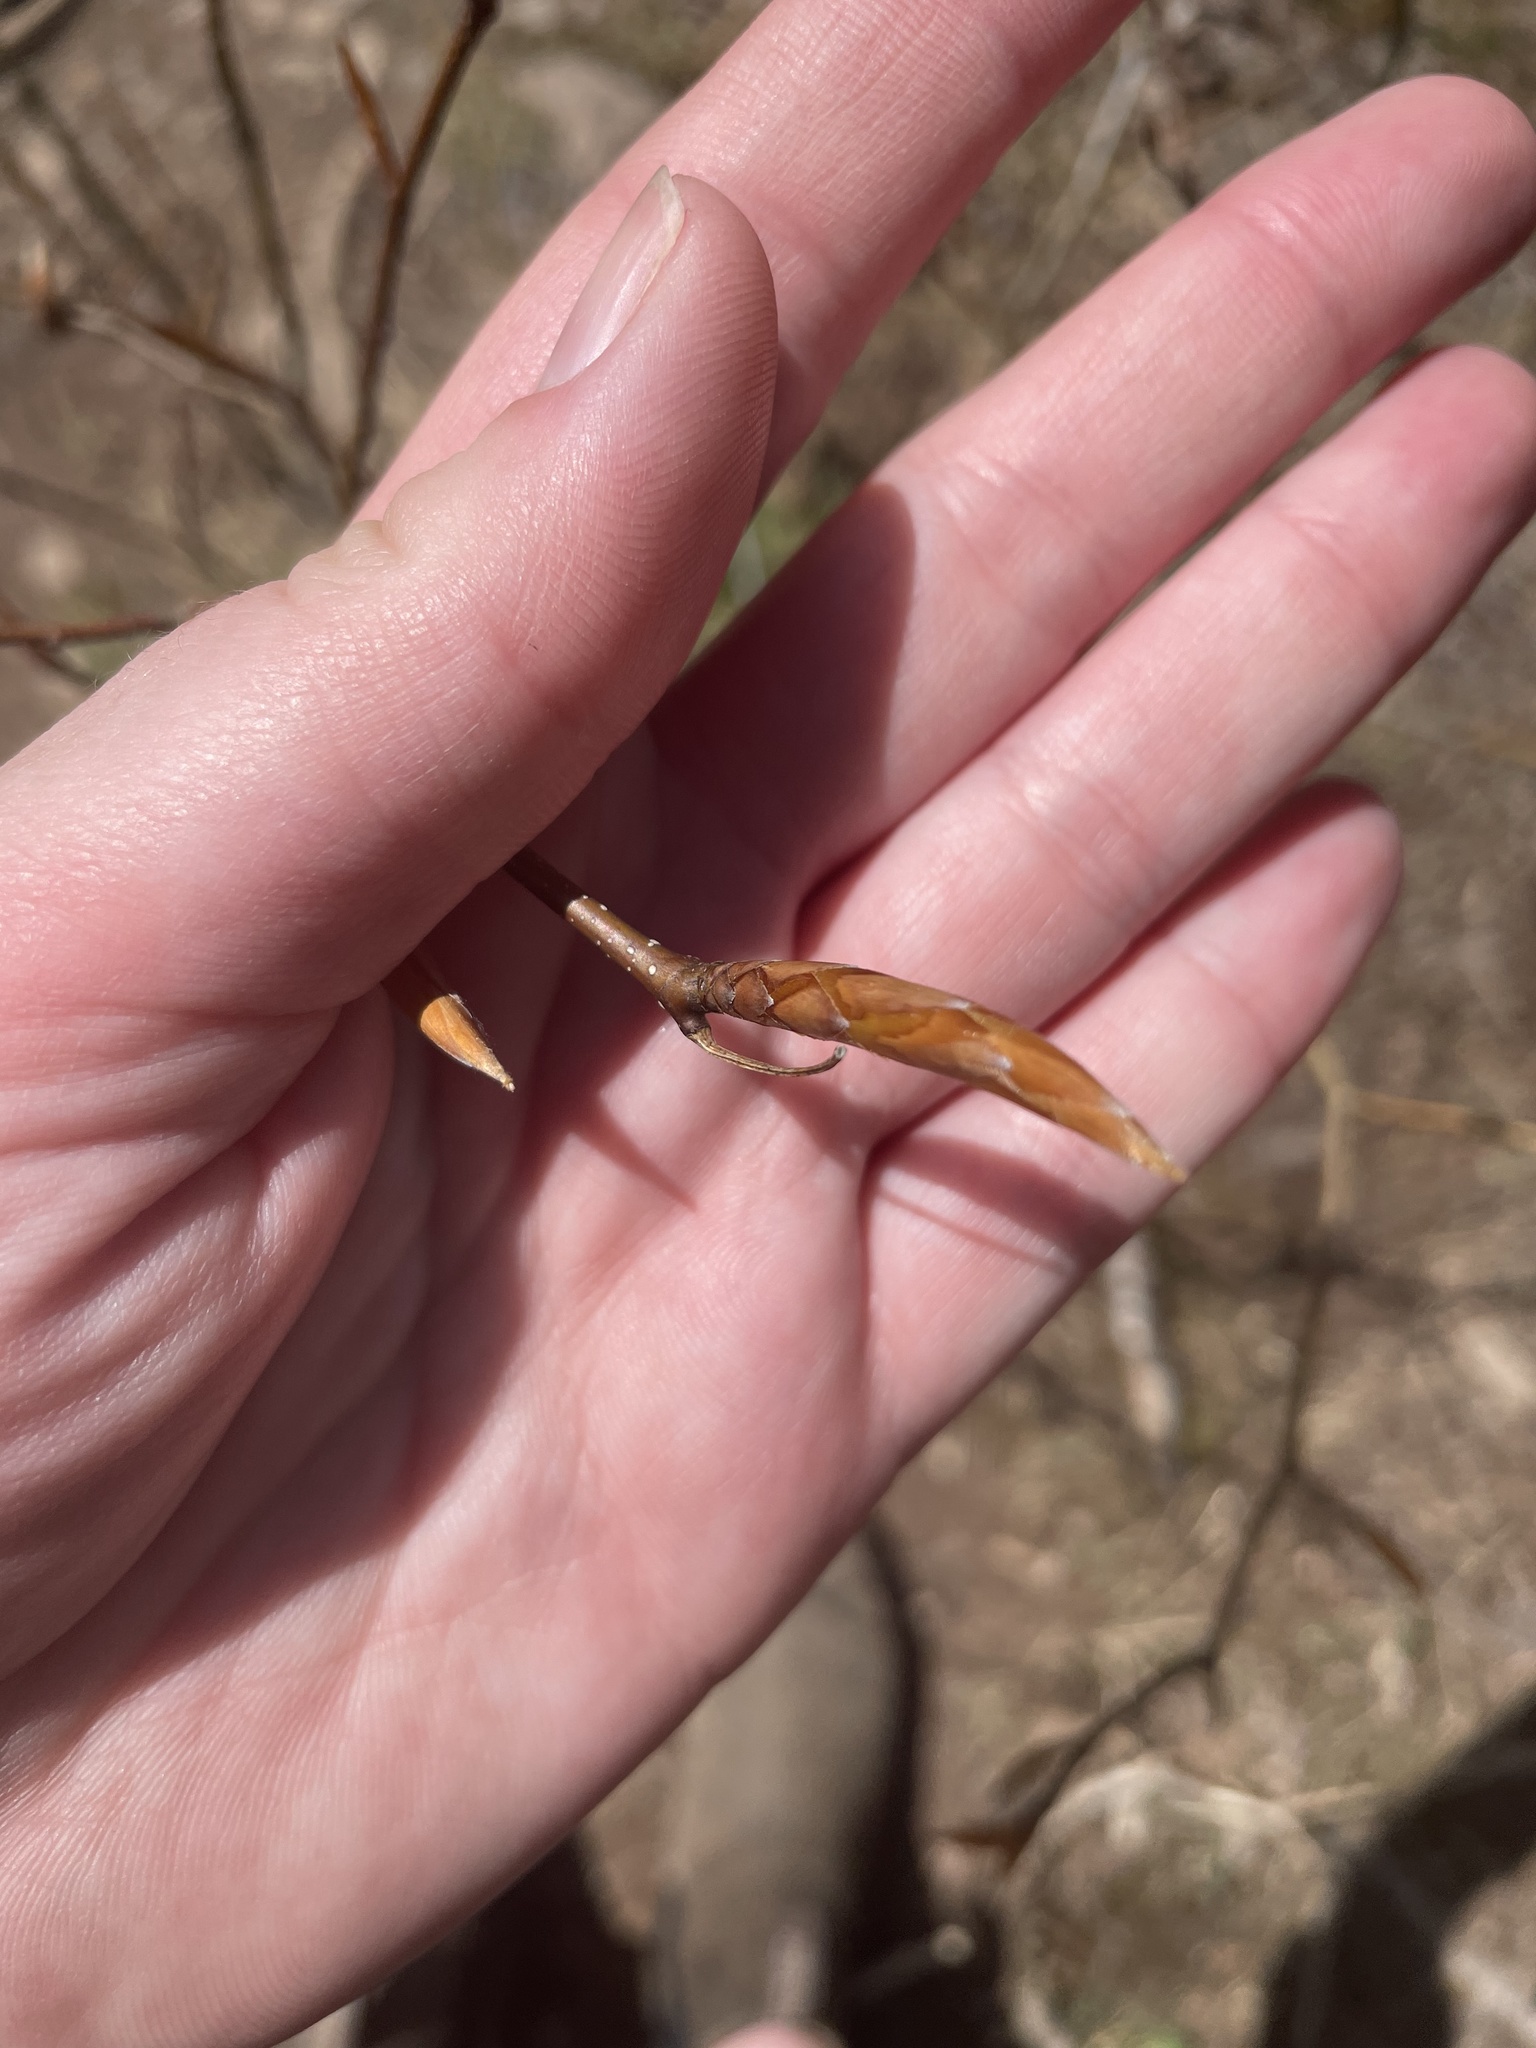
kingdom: Plantae
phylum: Tracheophyta
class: Magnoliopsida
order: Fagales
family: Fagaceae
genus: Fagus
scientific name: Fagus grandifolia
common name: American beech
